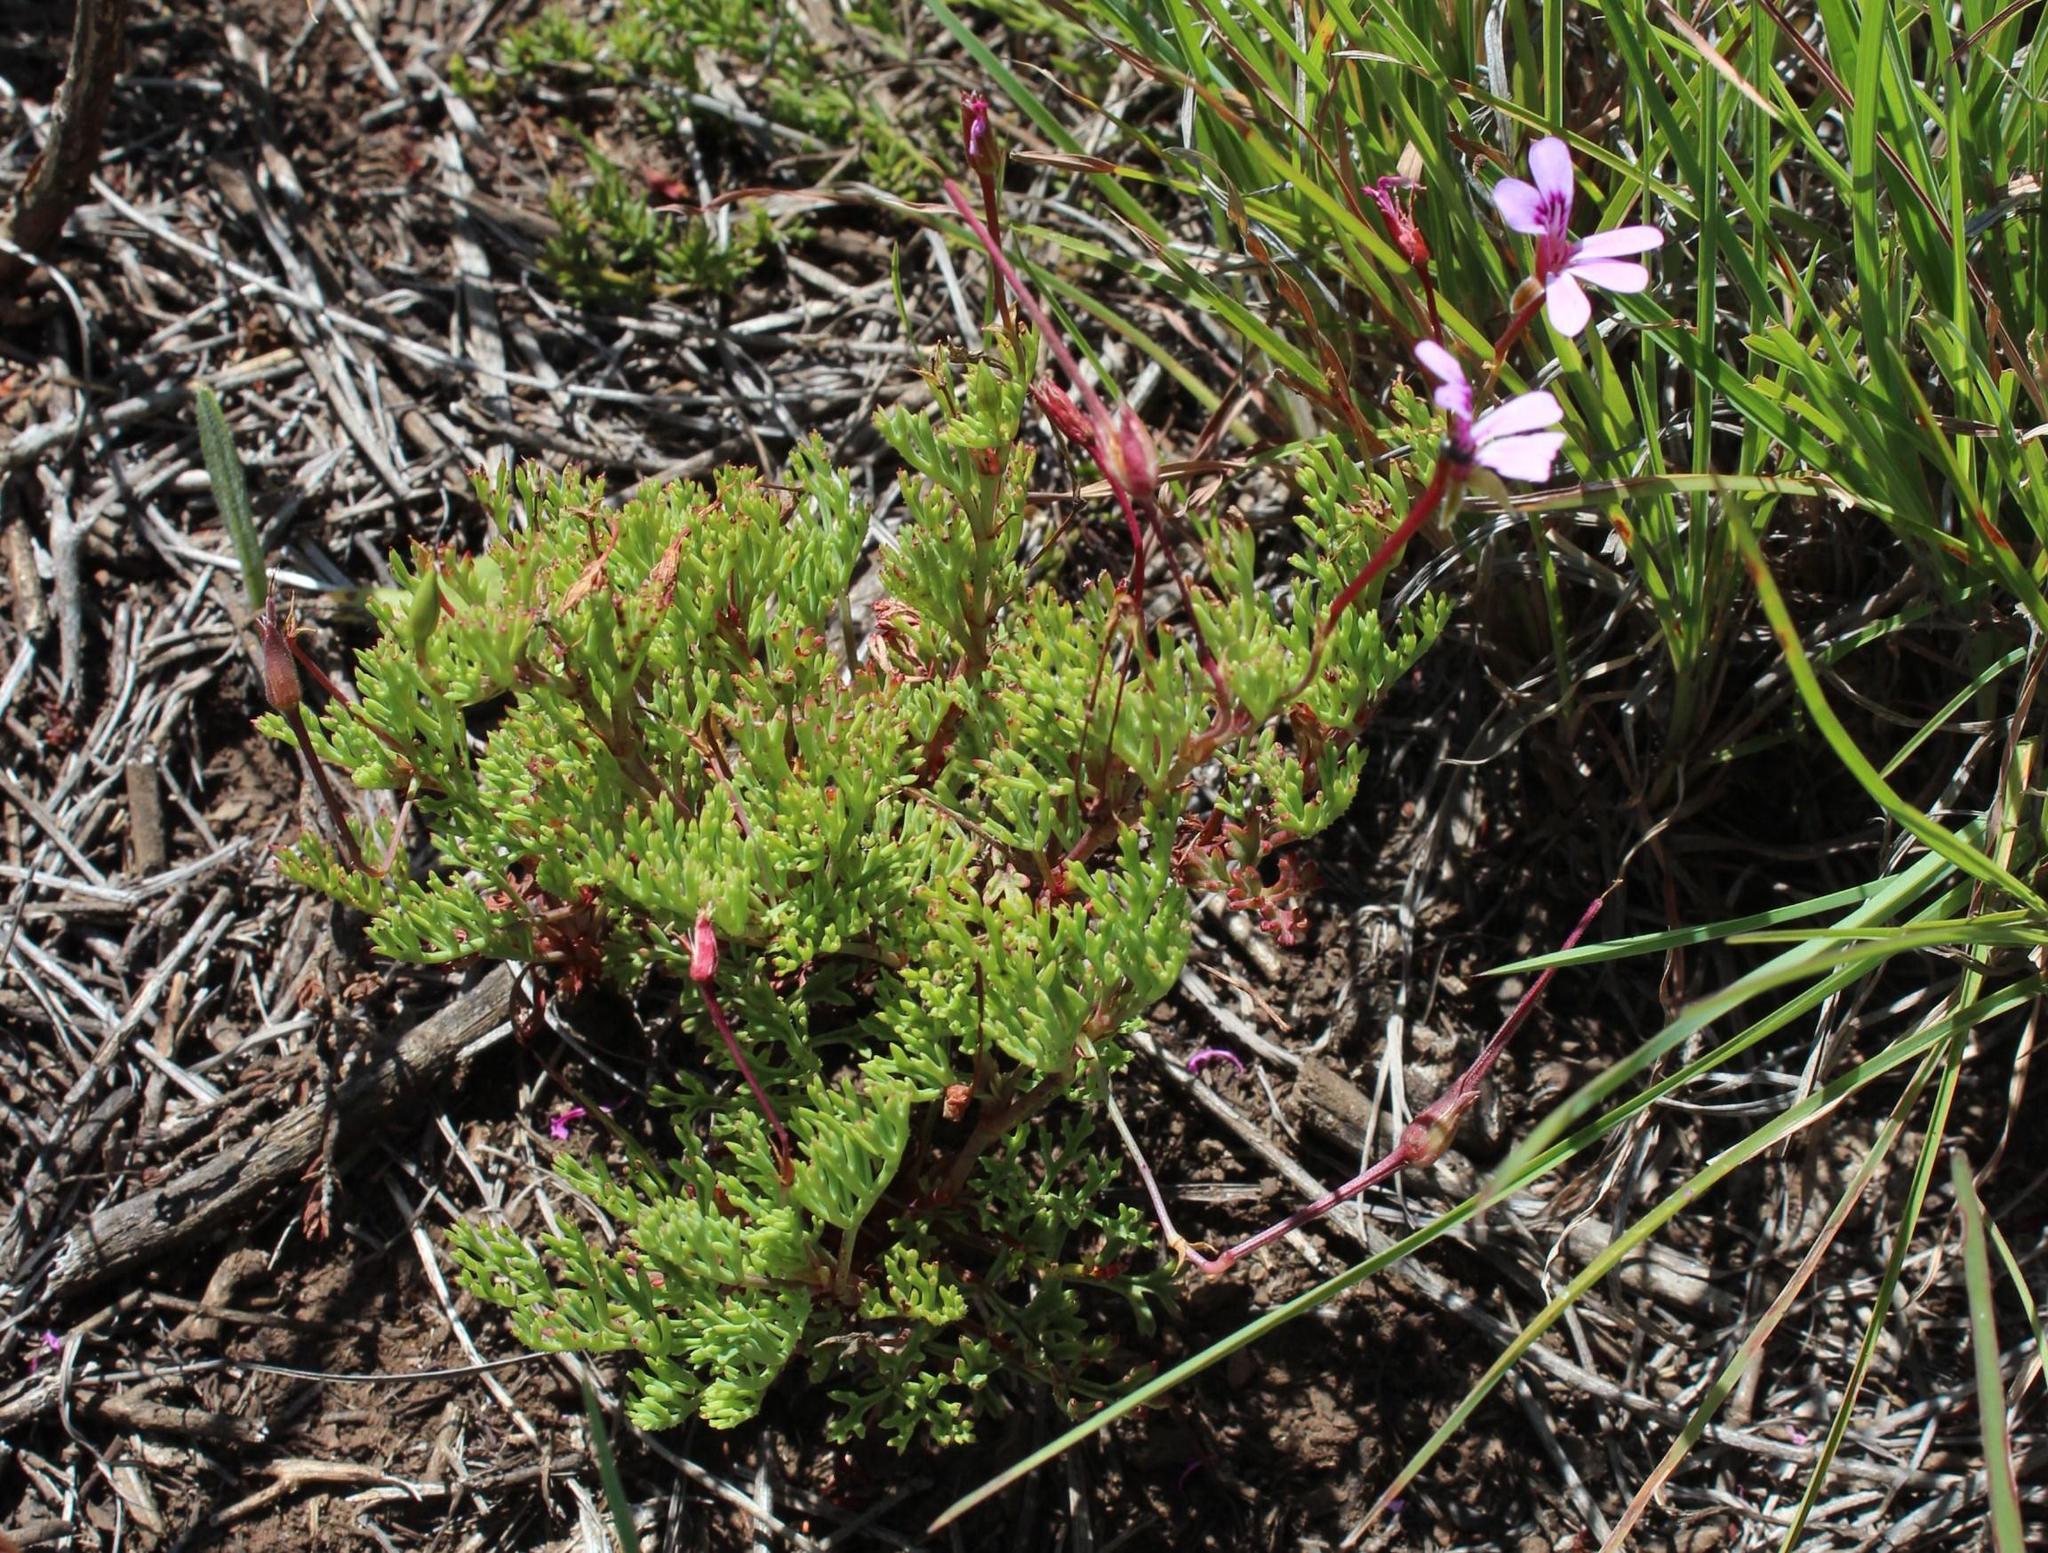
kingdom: Plantae
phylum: Tracheophyta
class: Magnoliopsida
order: Geraniales
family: Geraniaceae
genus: Pelargonium
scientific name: Pelargonium laevigatum
